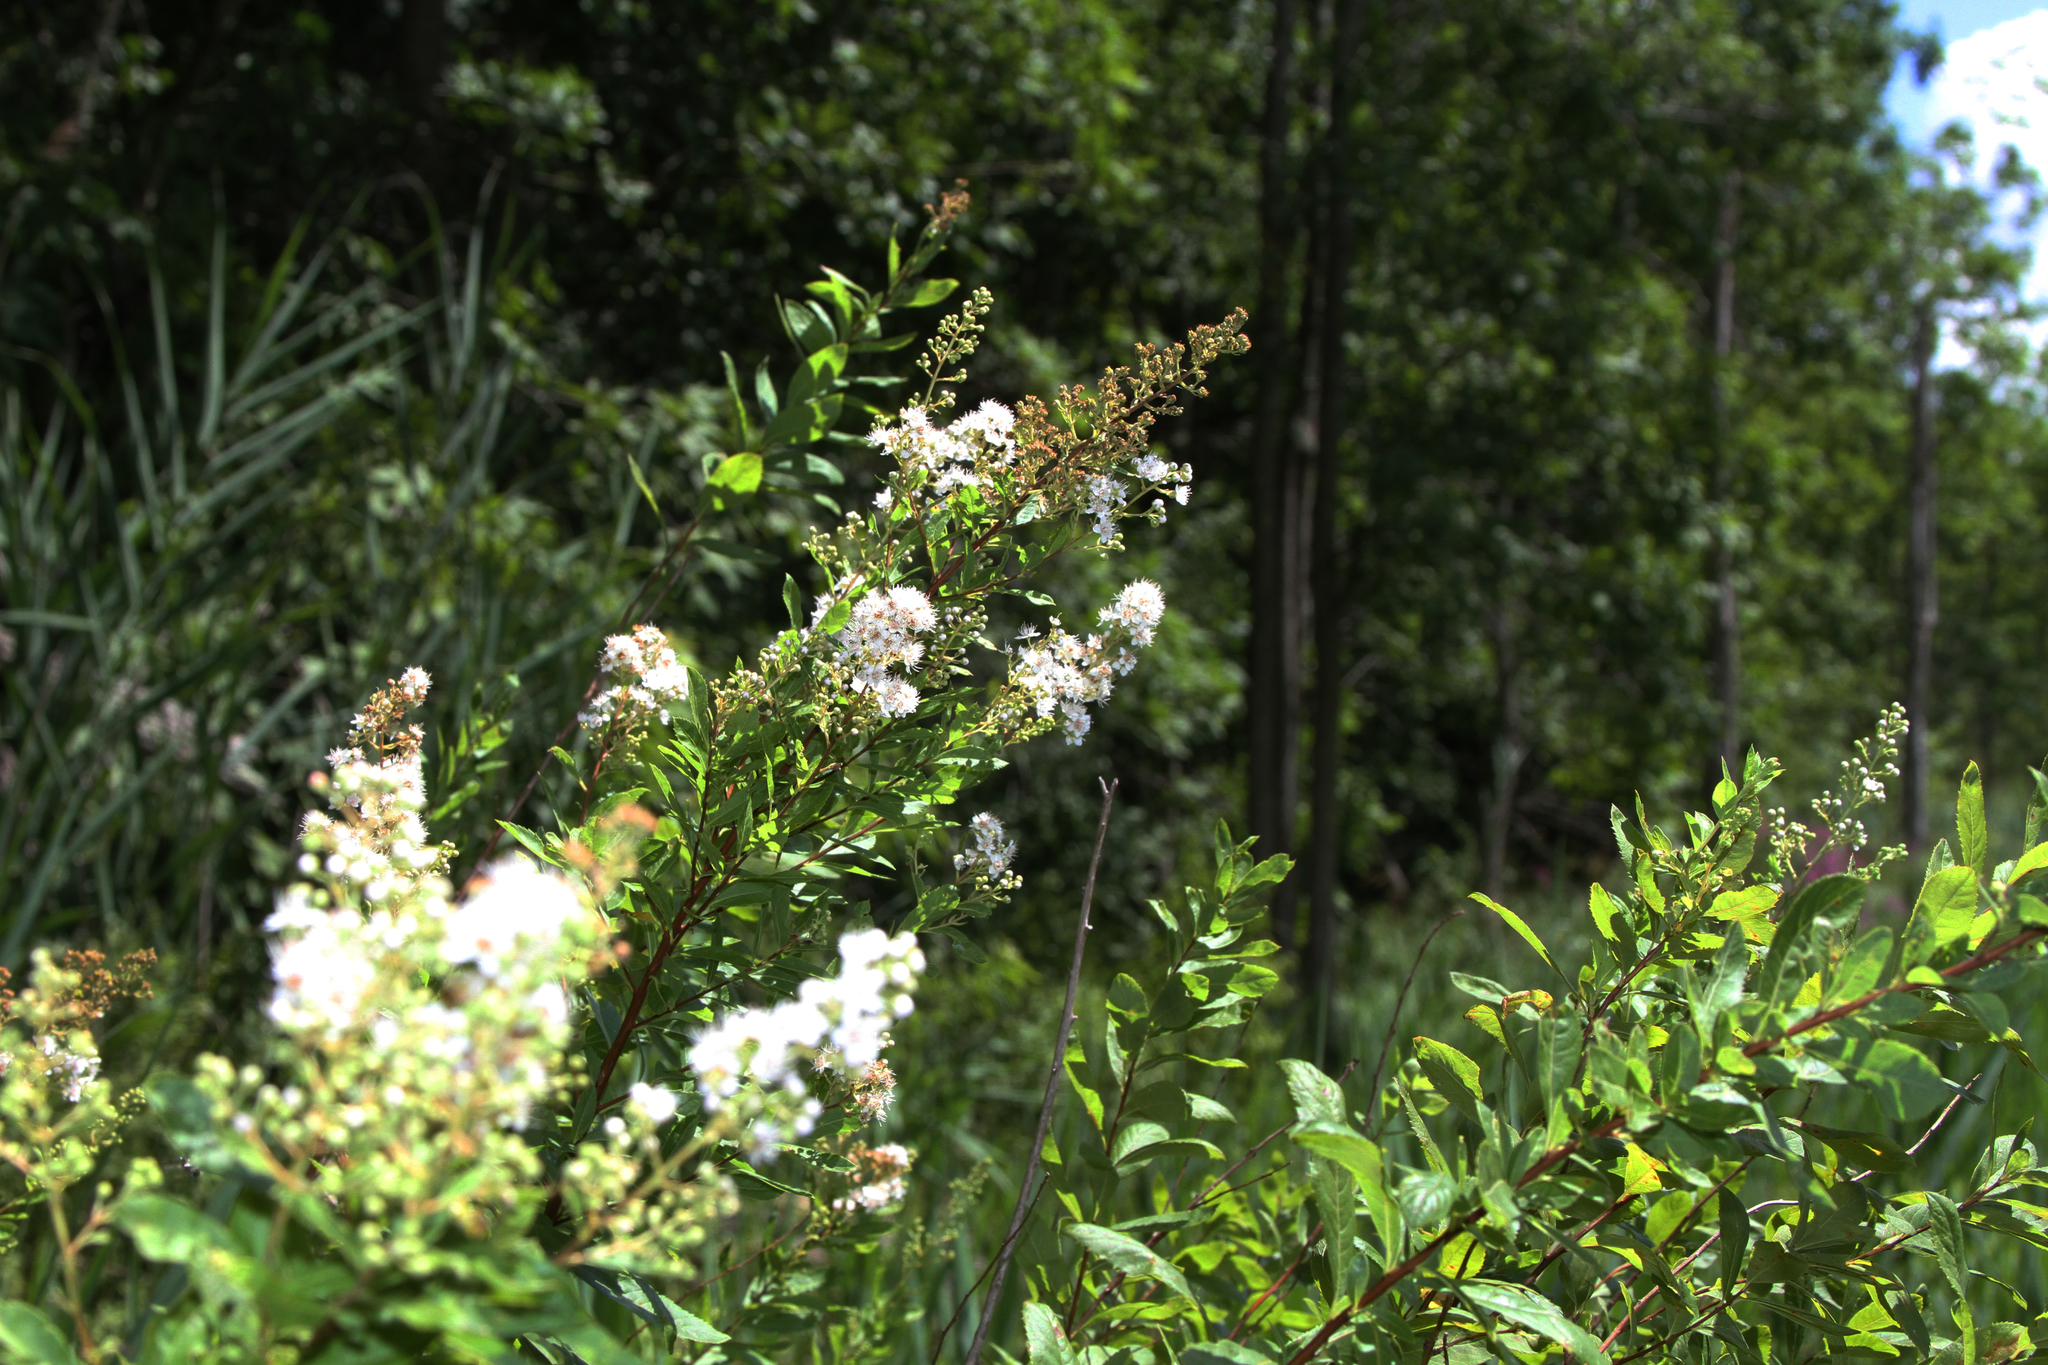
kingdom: Plantae
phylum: Tracheophyta
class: Magnoliopsida
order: Rosales
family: Rosaceae
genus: Spiraea
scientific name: Spiraea alba
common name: Pale bridewort
